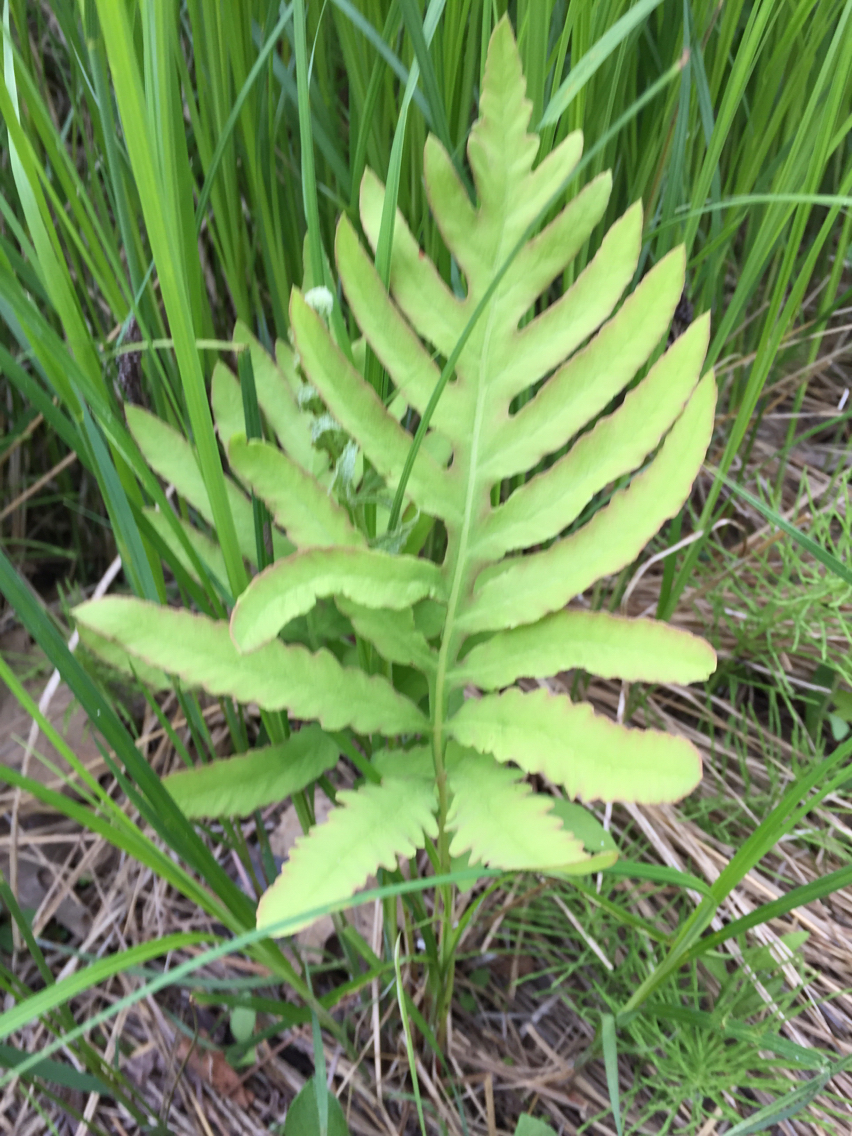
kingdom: Plantae
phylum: Tracheophyta
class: Polypodiopsida
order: Polypodiales
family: Onocleaceae
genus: Onoclea
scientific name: Onoclea sensibilis
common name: Sensitive fern
